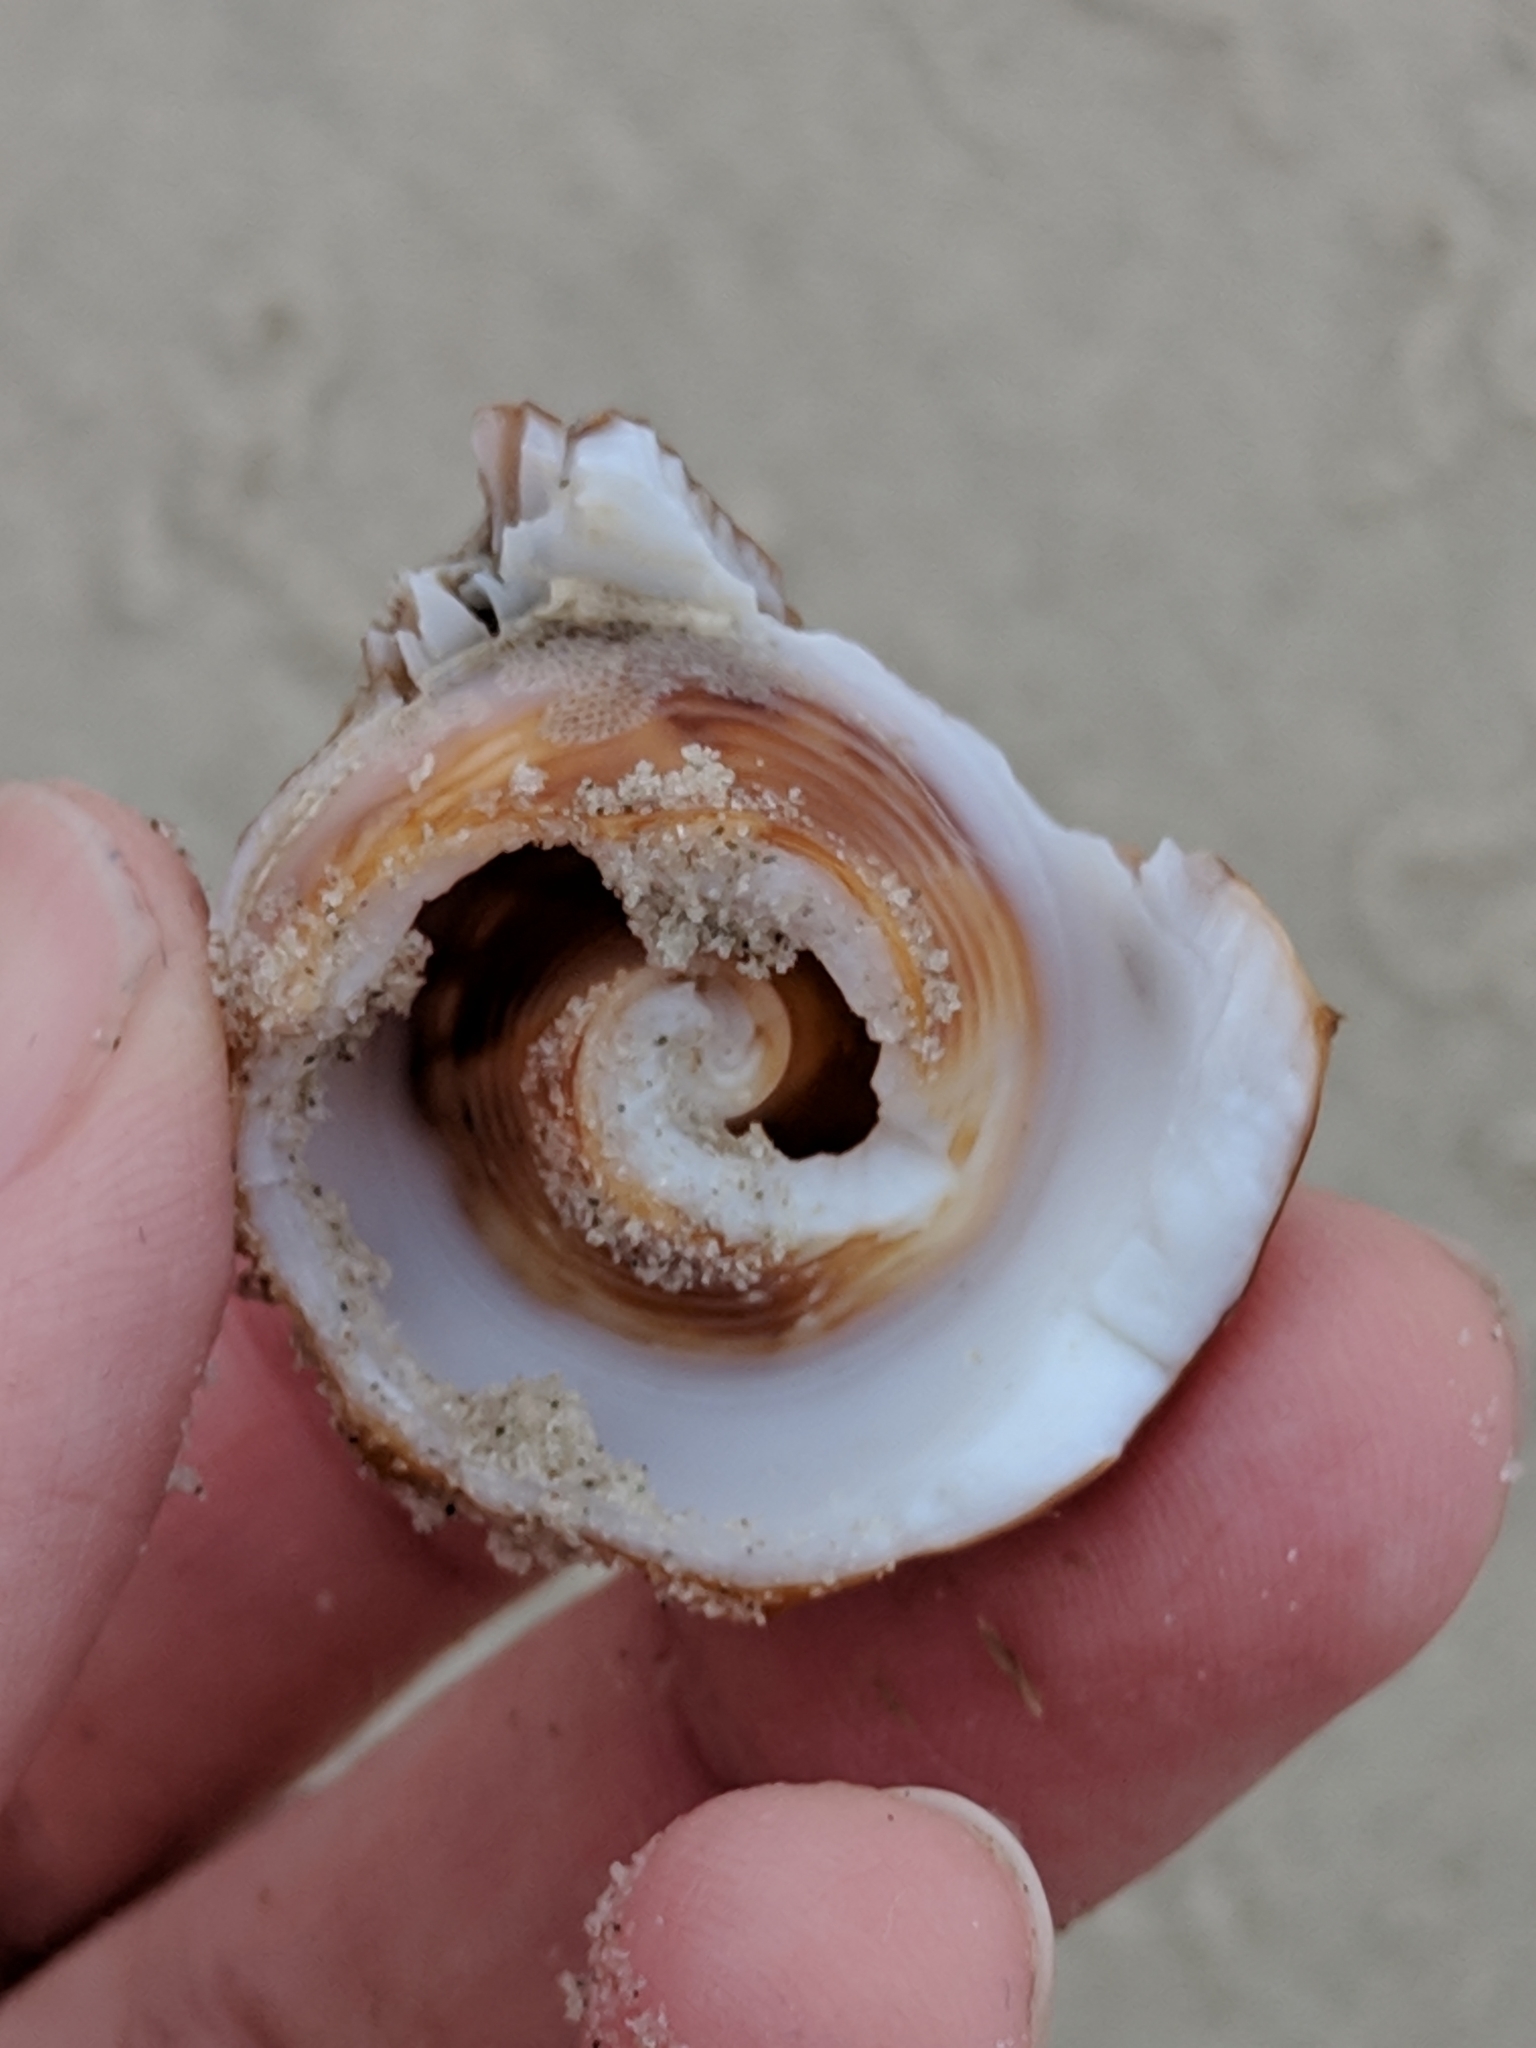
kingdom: Animalia
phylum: Mollusca
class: Gastropoda
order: Littorinimorpha
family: Strombidae
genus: Strombus
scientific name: Strombus alatus
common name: Florida fighting conch
